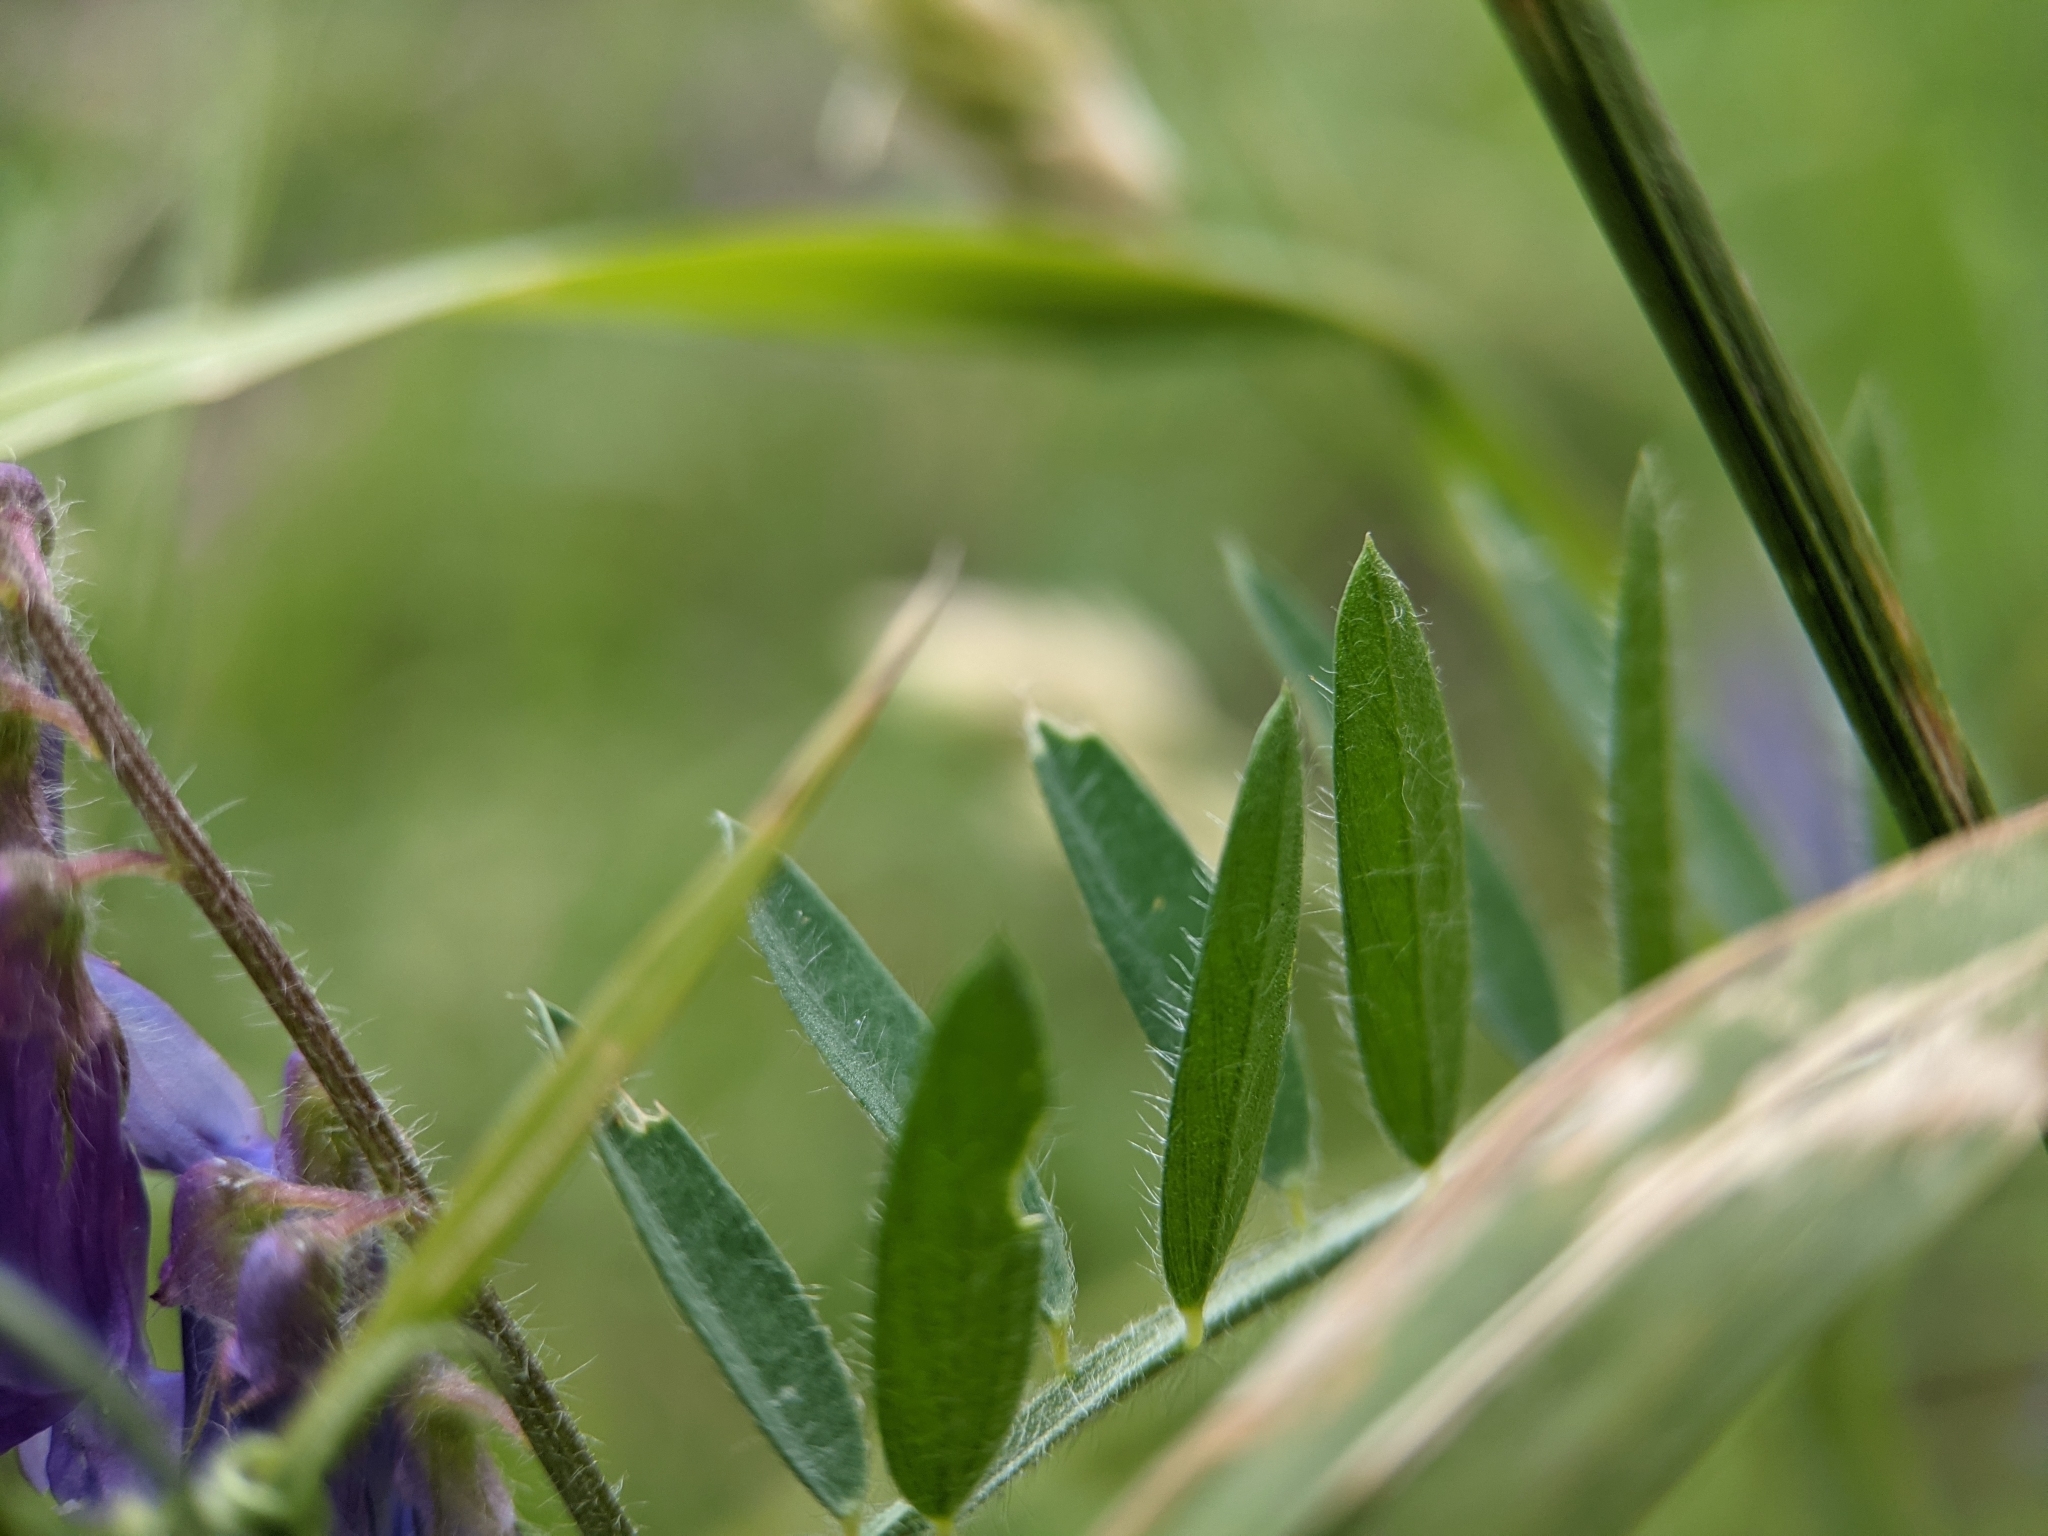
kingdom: Plantae
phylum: Tracheophyta
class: Magnoliopsida
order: Fabales
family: Fabaceae
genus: Vicia
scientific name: Vicia villosa
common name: Fodder vetch
